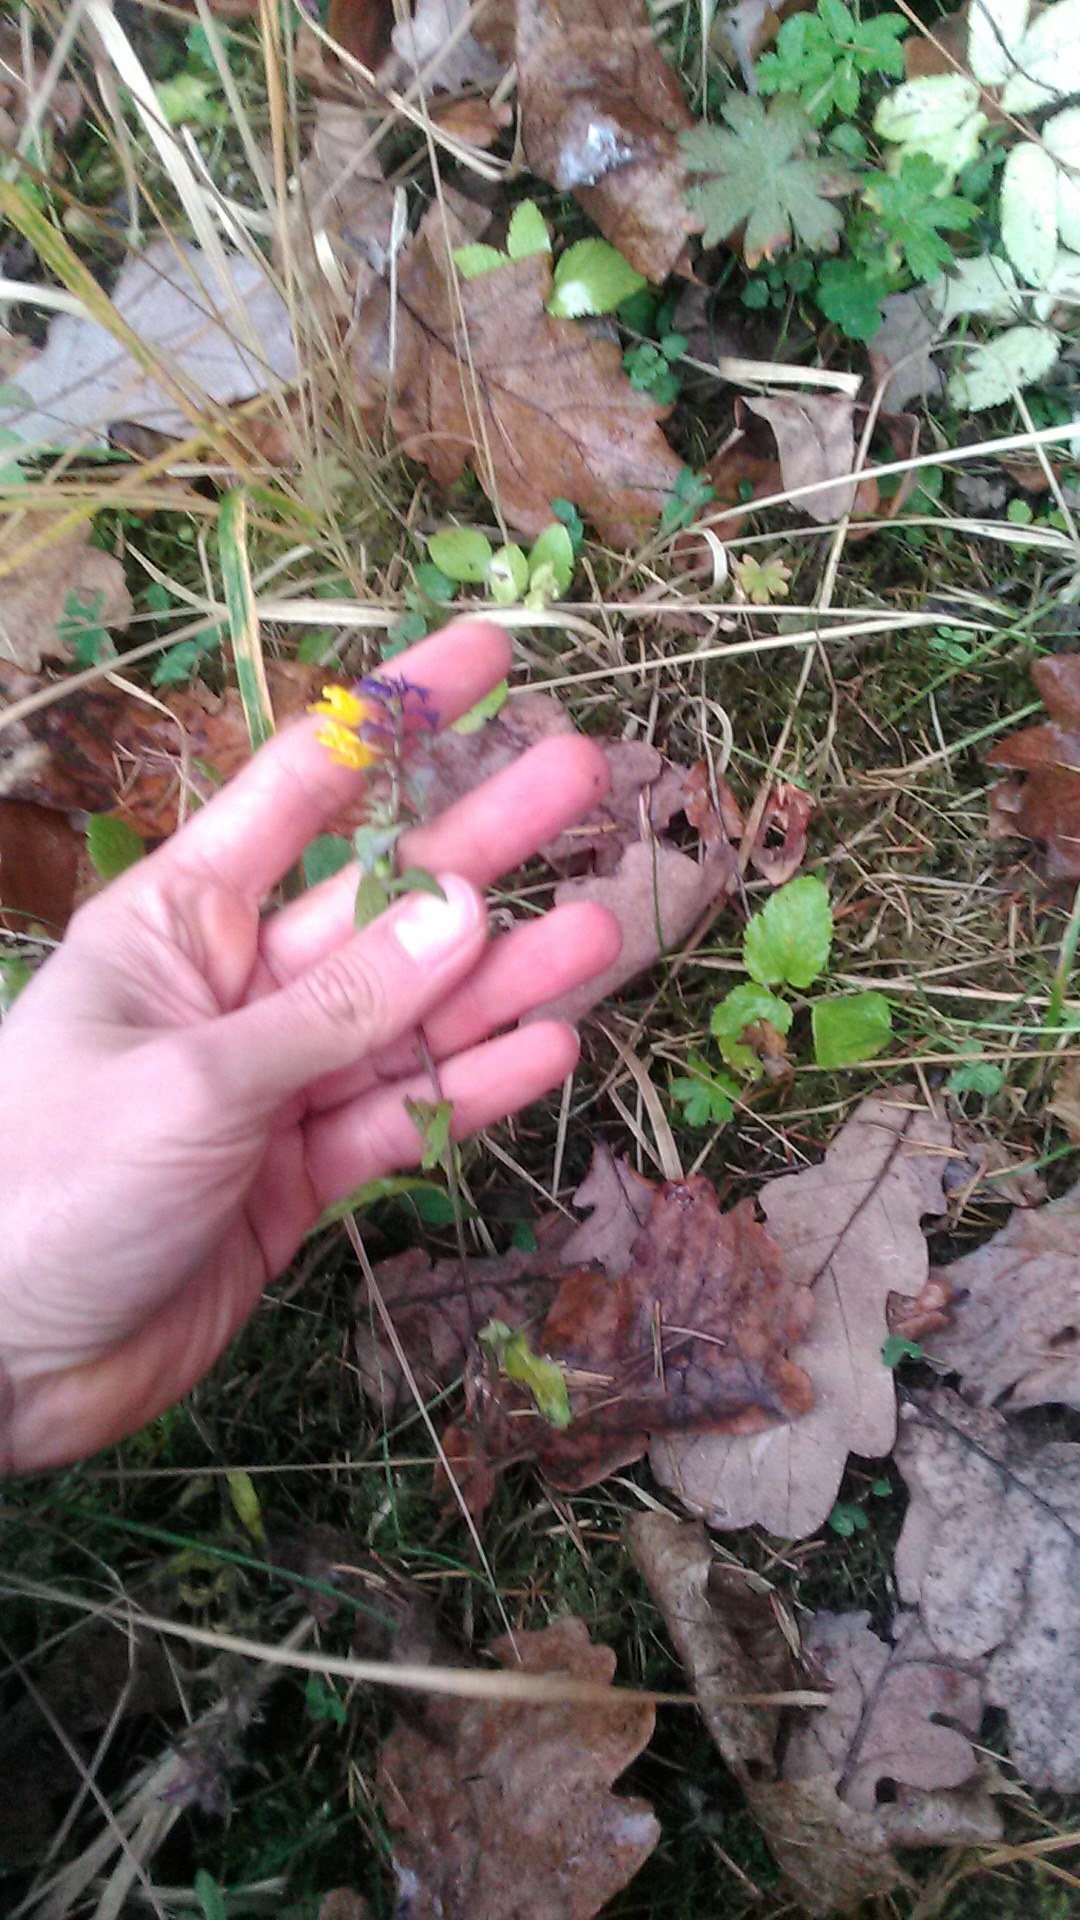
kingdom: Plantae
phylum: Tracheophyta
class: Magnoliopsida
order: Lamiales
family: Orobanchaceae
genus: Melampyrum
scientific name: Melampyrum nemorosum
